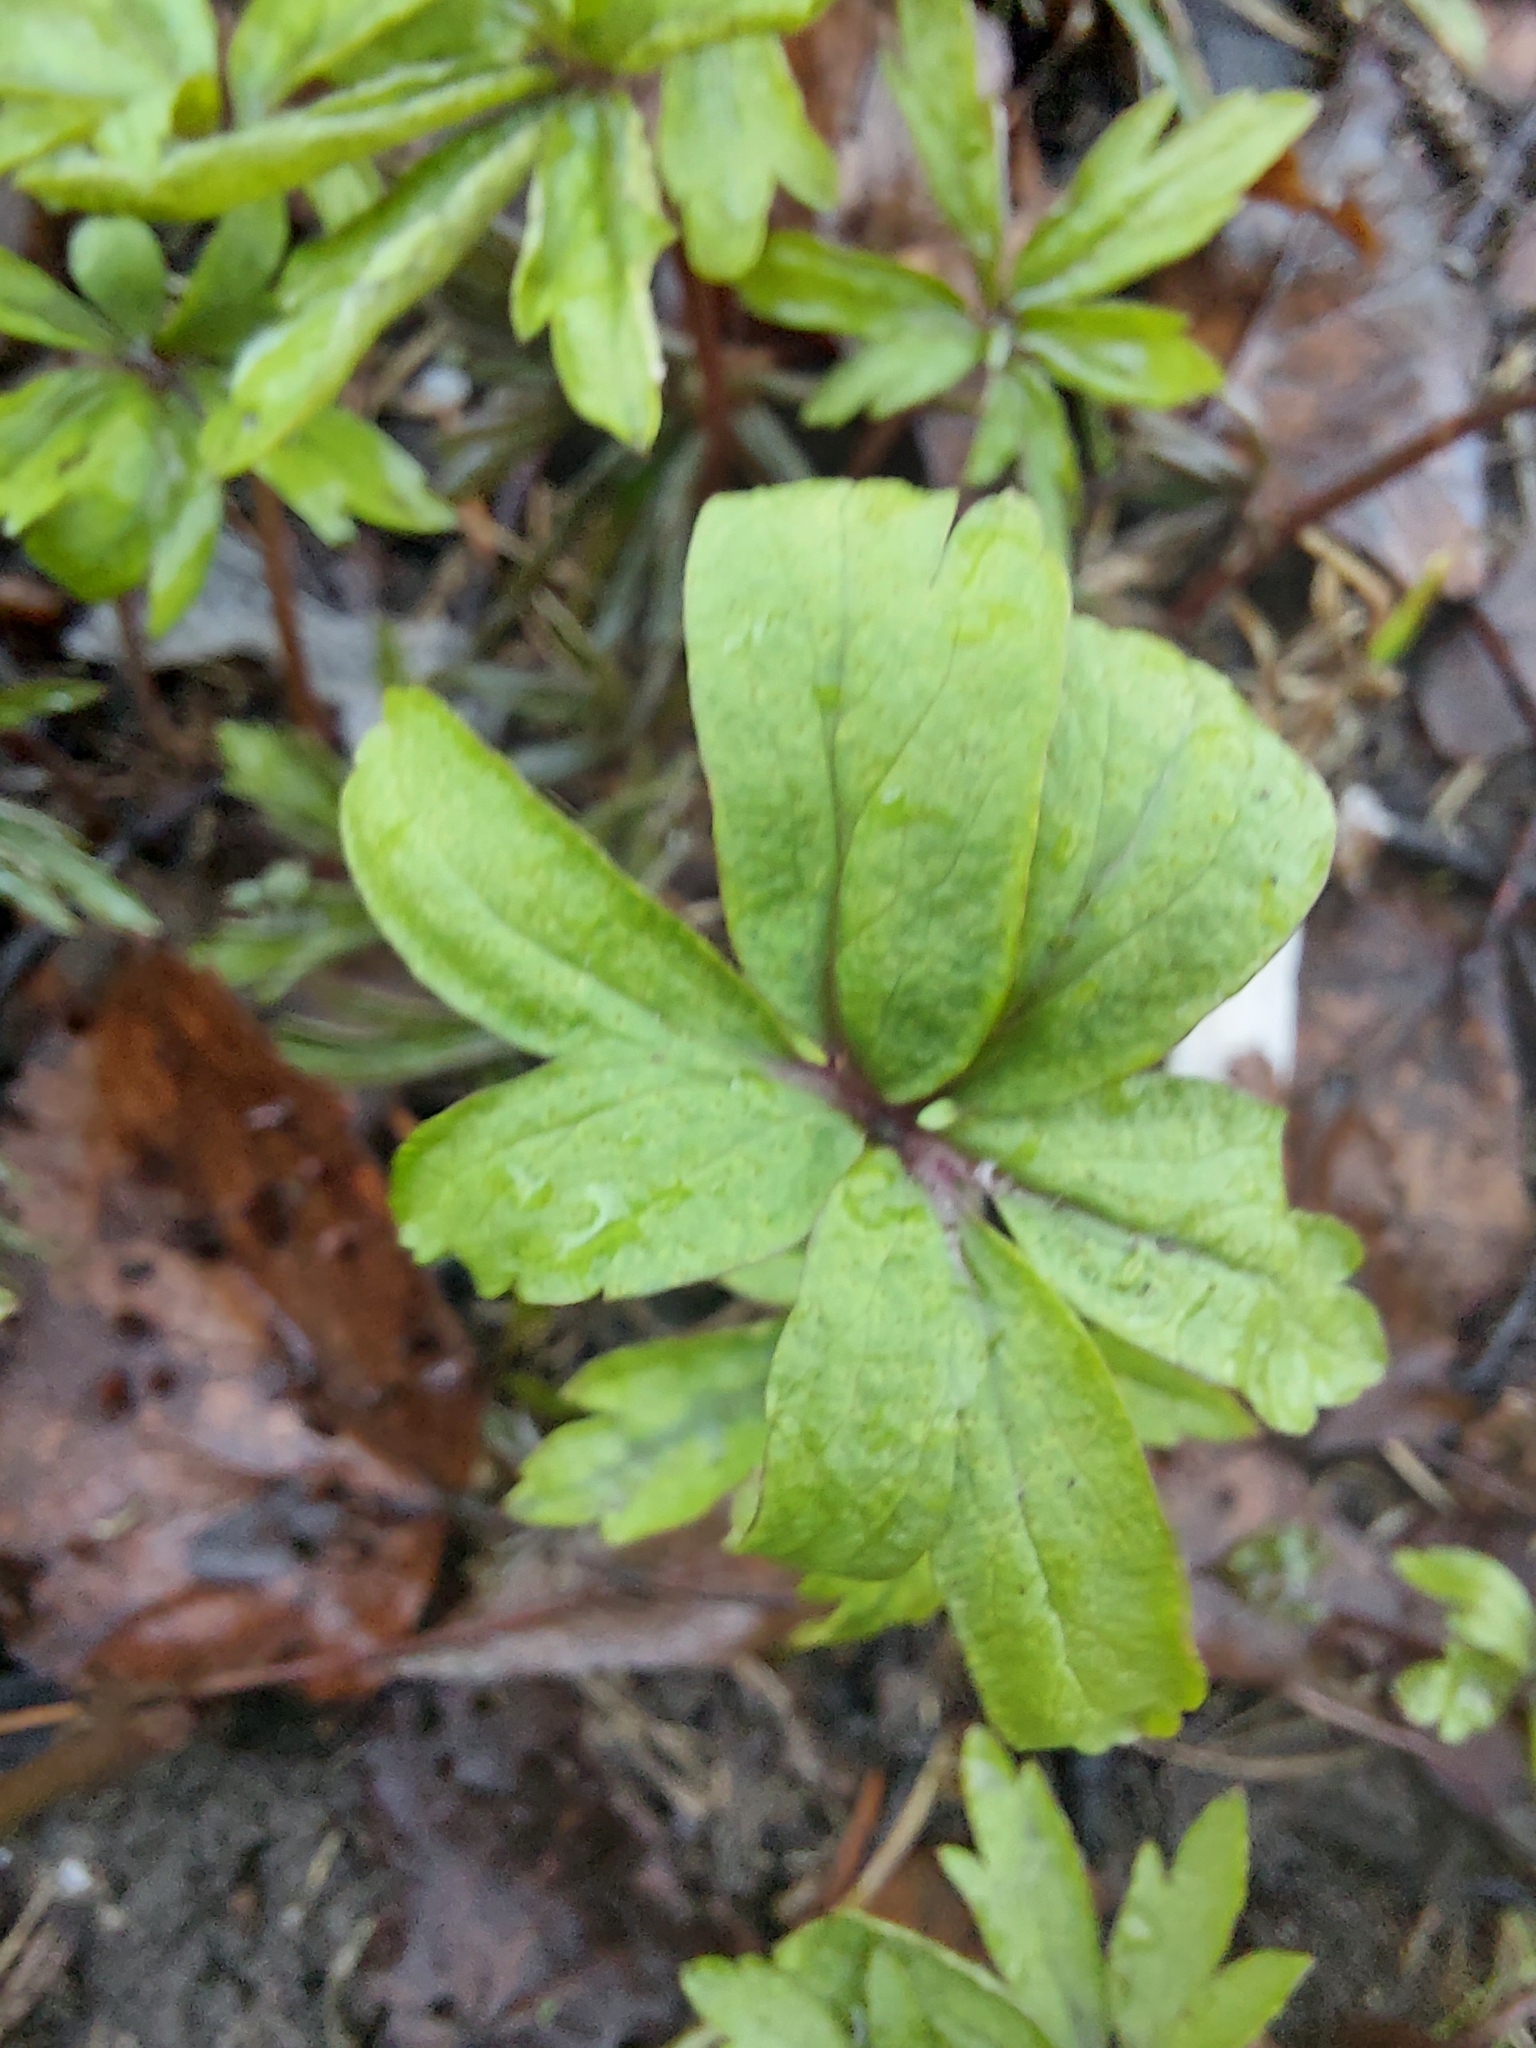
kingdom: Plantae
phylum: Tracheophyta
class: Magnoliopsida
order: Ranunculales
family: Ranunculaceae
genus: Anemone
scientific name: Anemone ranunculoides
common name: Yellow anemone
